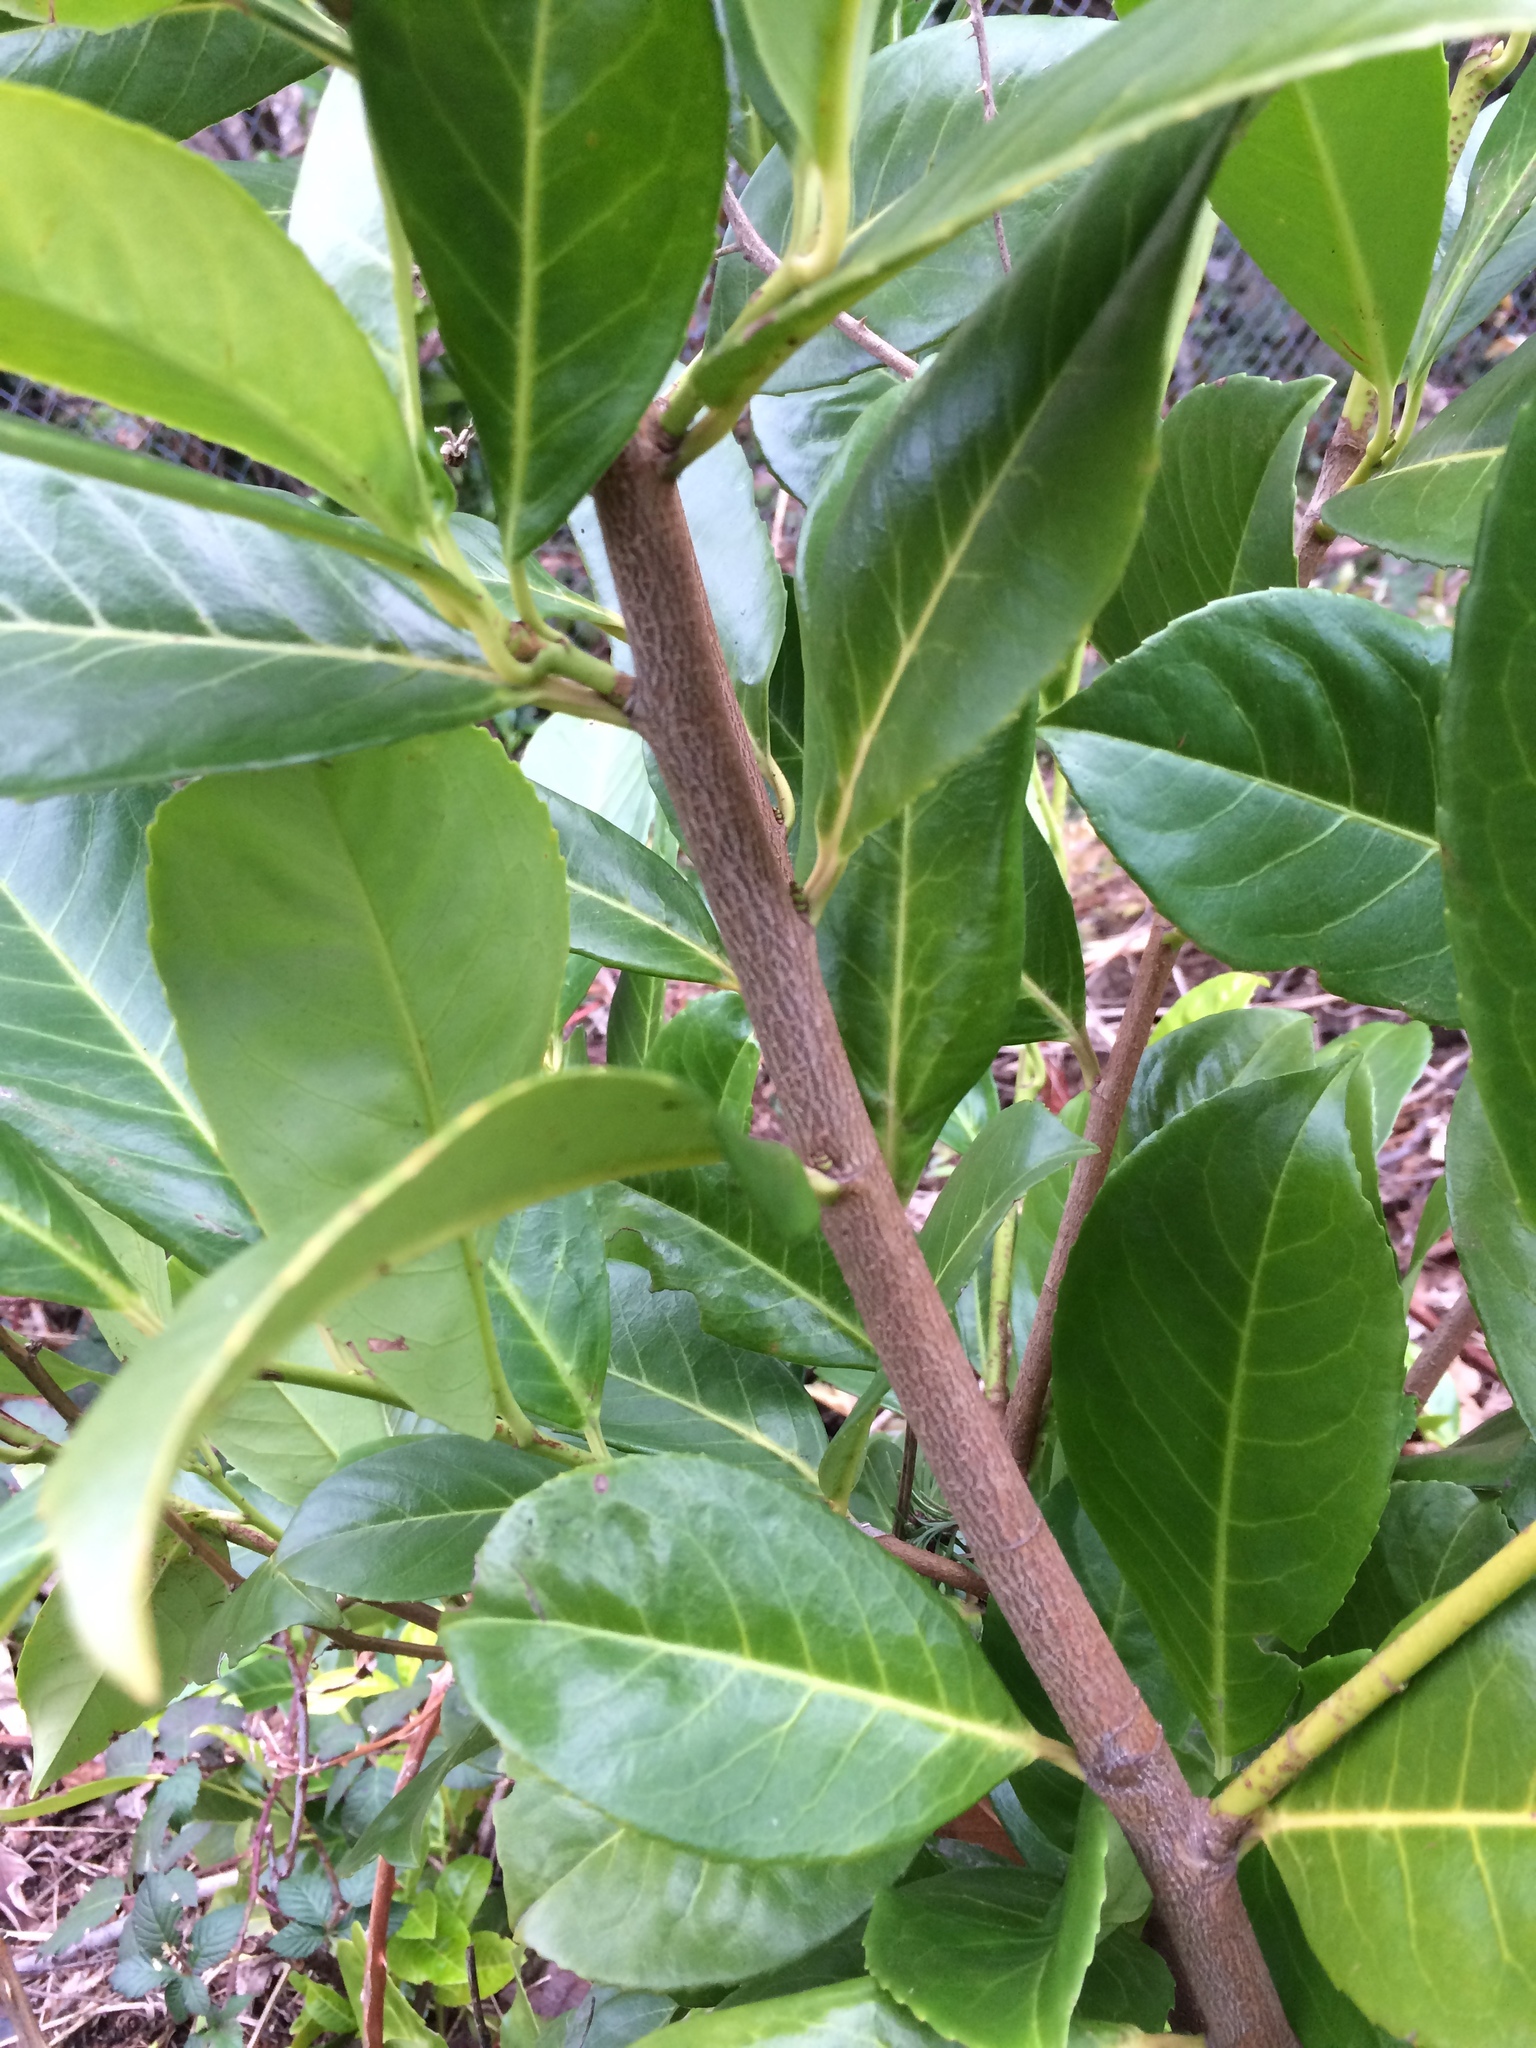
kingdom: Plantae
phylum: Tracheophyta
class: Magnoliopsida
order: Rosales
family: Rosaceae
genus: Prunus
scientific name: Prunus laurocerasus
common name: Cherry laurel
